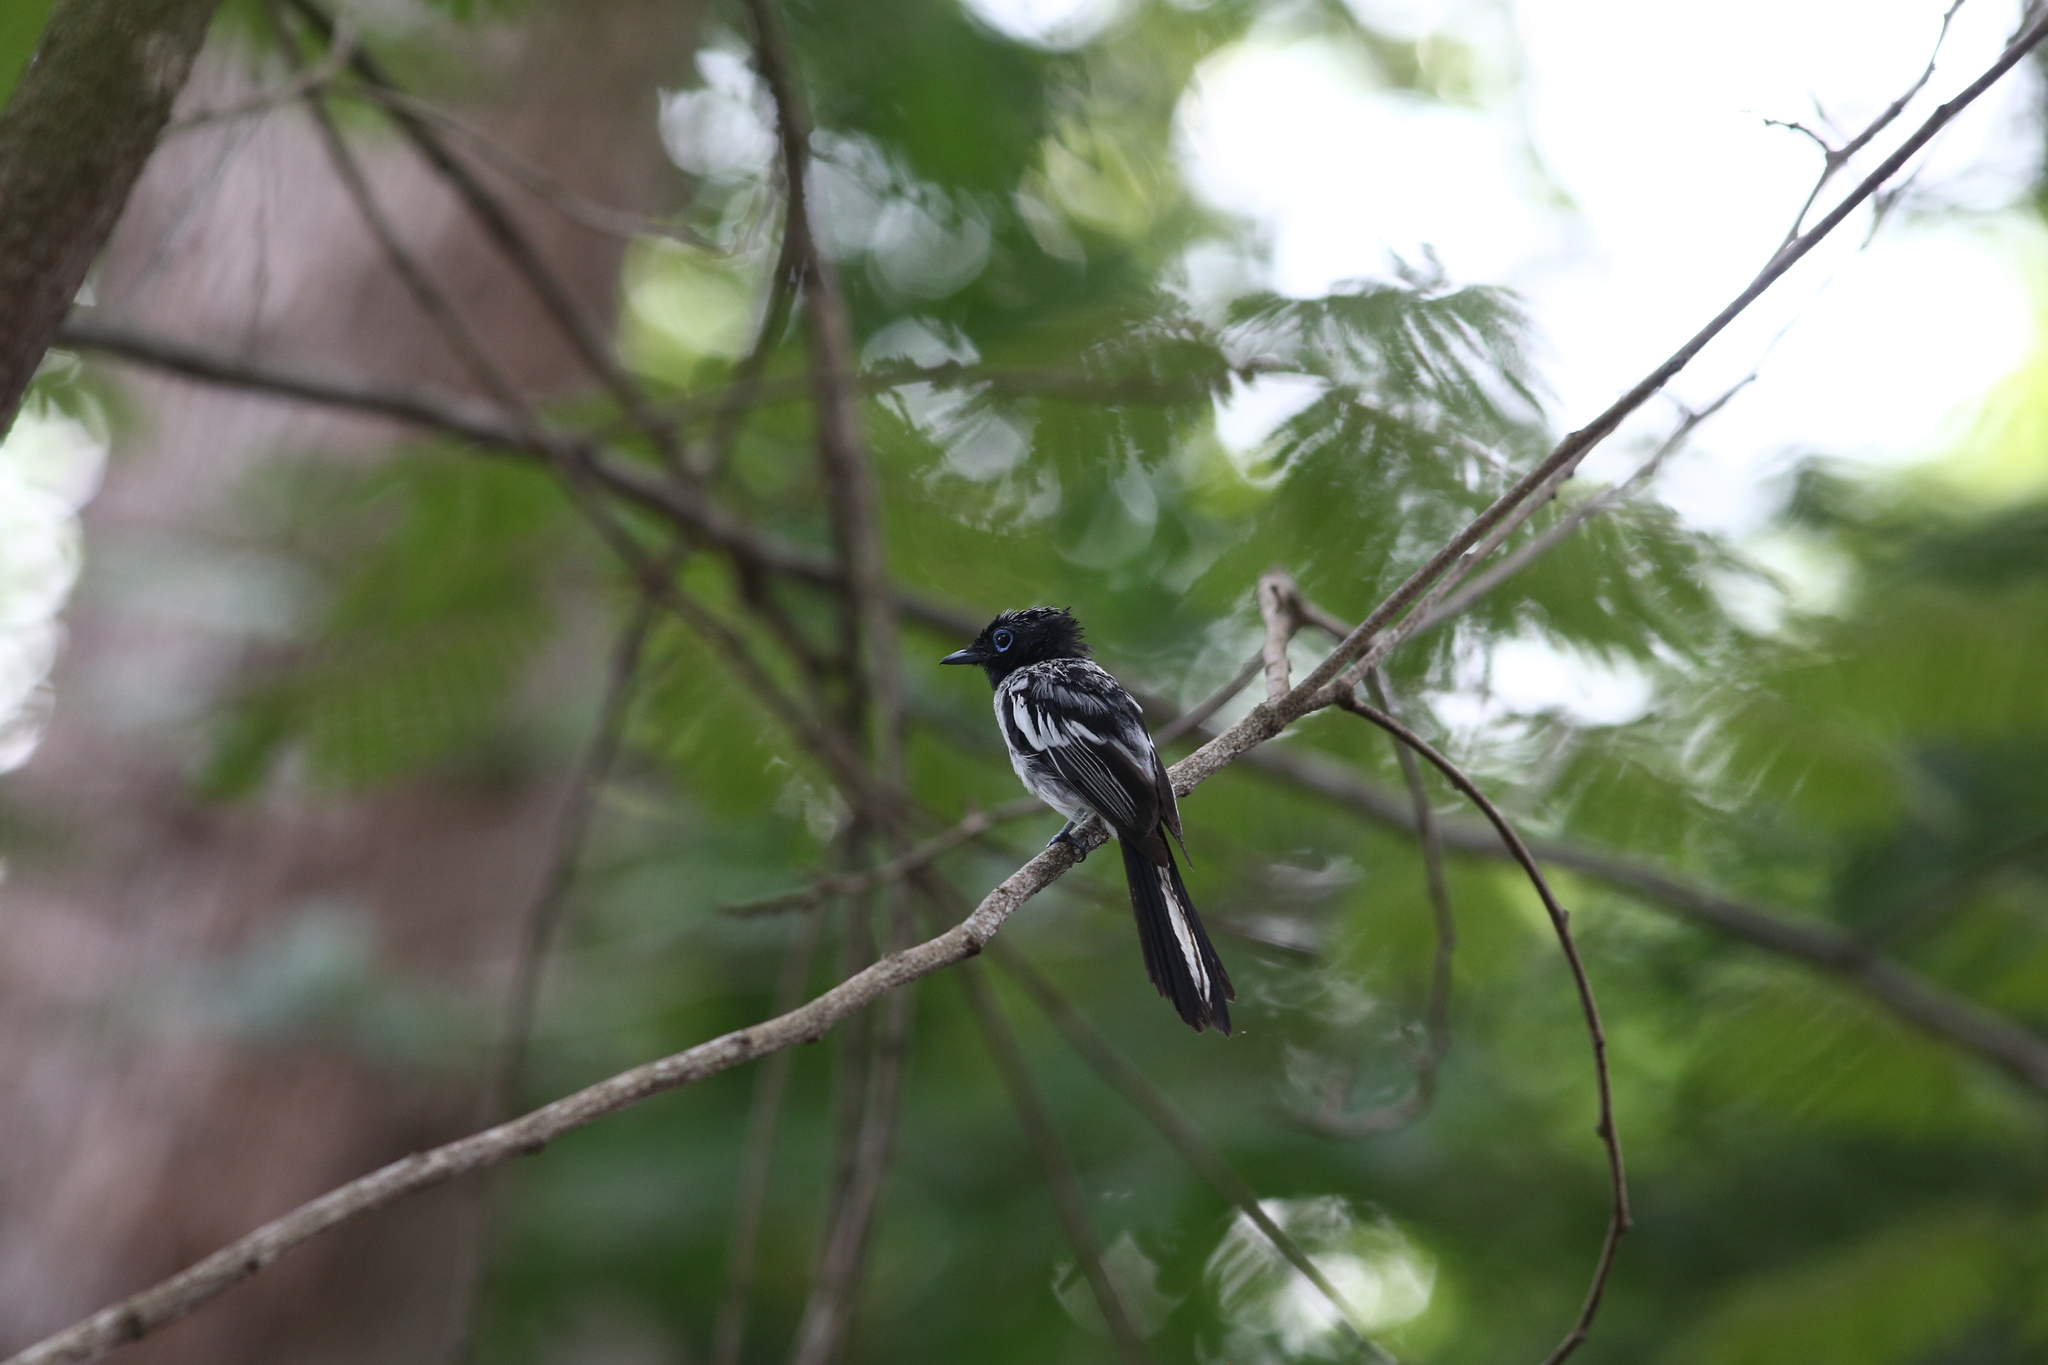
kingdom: Animalia
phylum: Chordata
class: Aves
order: Passeriformes
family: Monarchidae
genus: Terpsiphone
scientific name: Terpsiphone mutata
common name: Malagasy paradise flycatcher
